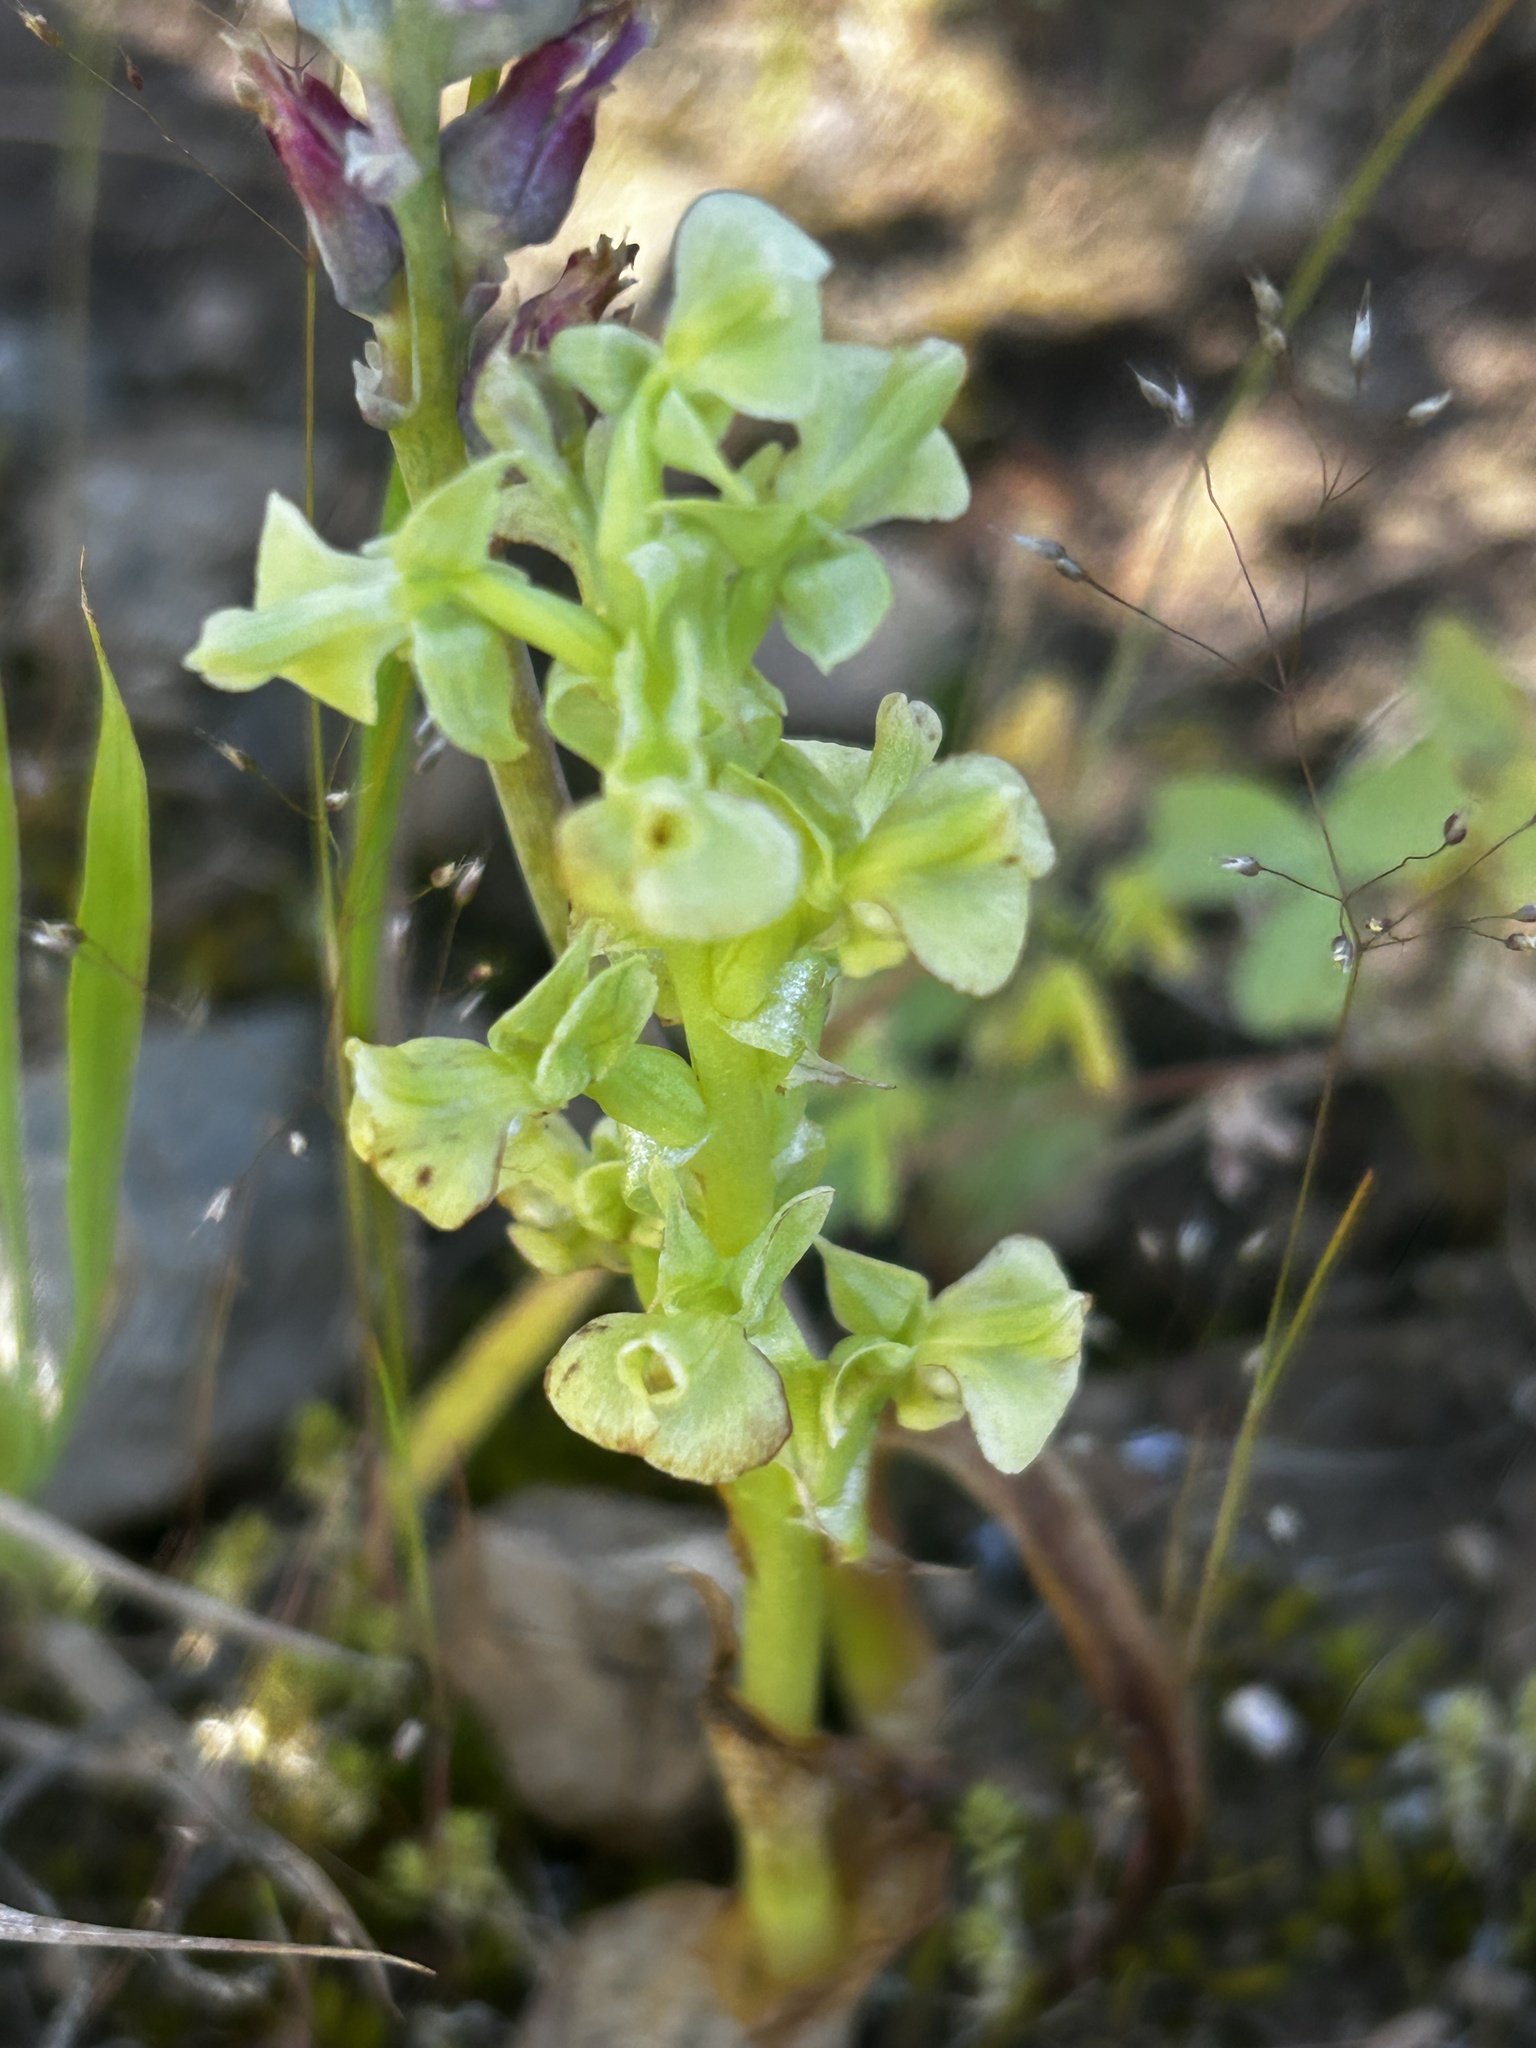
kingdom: Plantae
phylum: Tracheophyta
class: Liliopsida
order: Asparagales
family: Orchidaceae
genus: Pterygodium
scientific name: Pterygodium volucris
